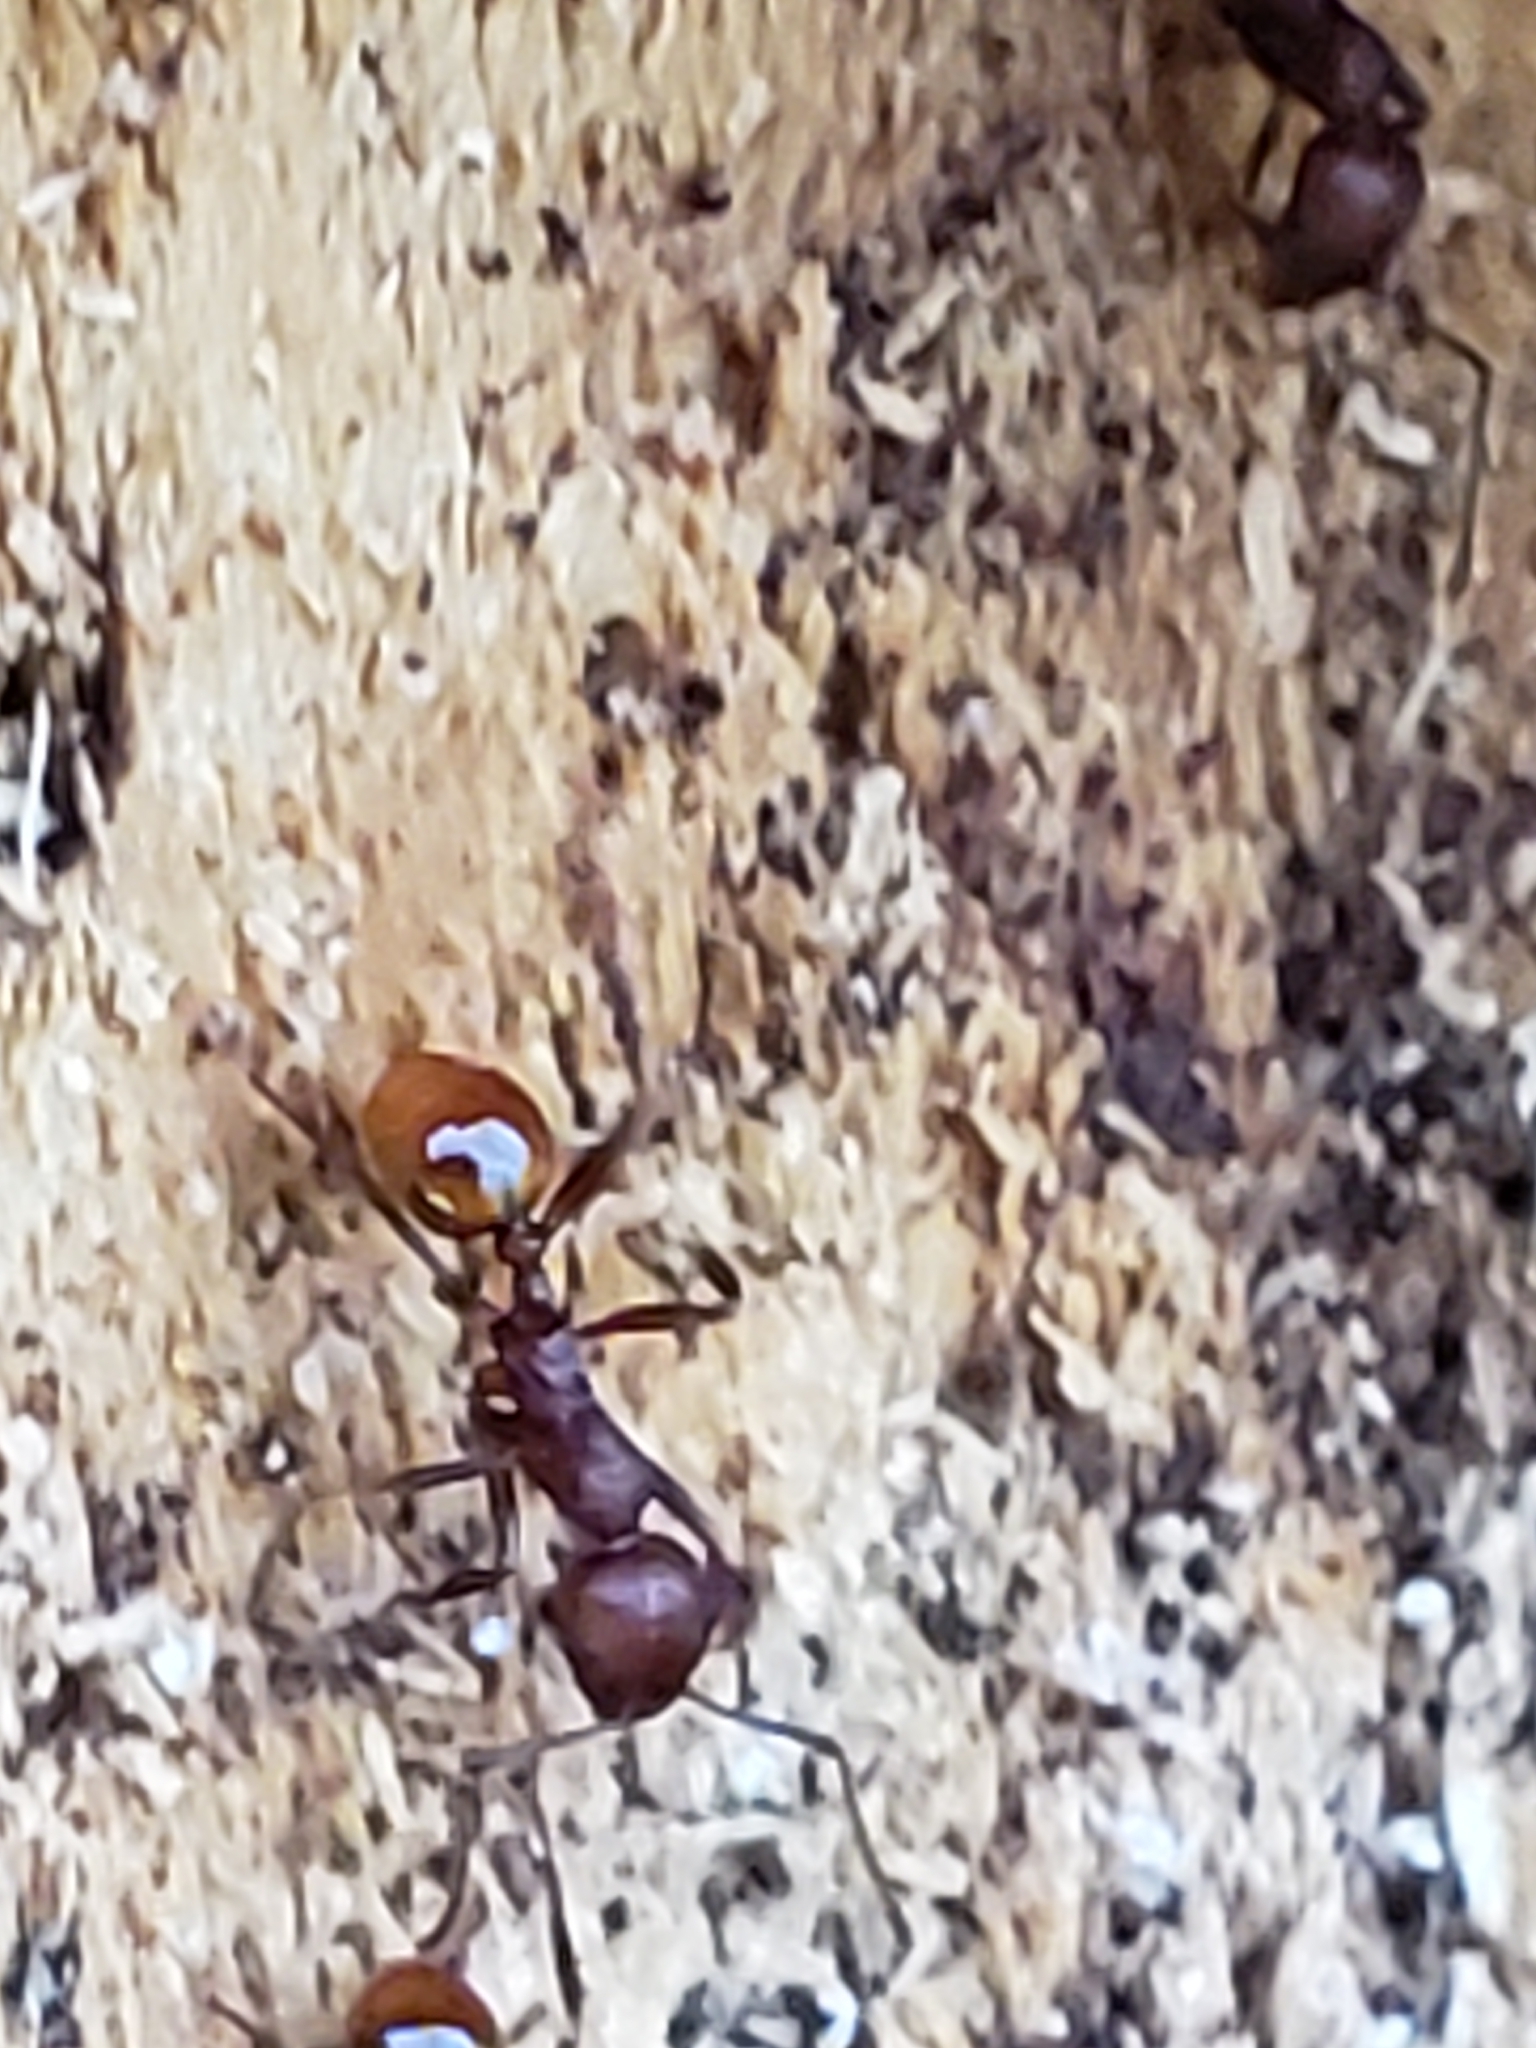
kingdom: Animalia
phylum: Arthropoda
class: Insecta
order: Hymenoptera
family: Formicidae
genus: Aphaenogaster
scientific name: Aphaenogaster tennesseensis
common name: Tennessee thread-waisted ant
